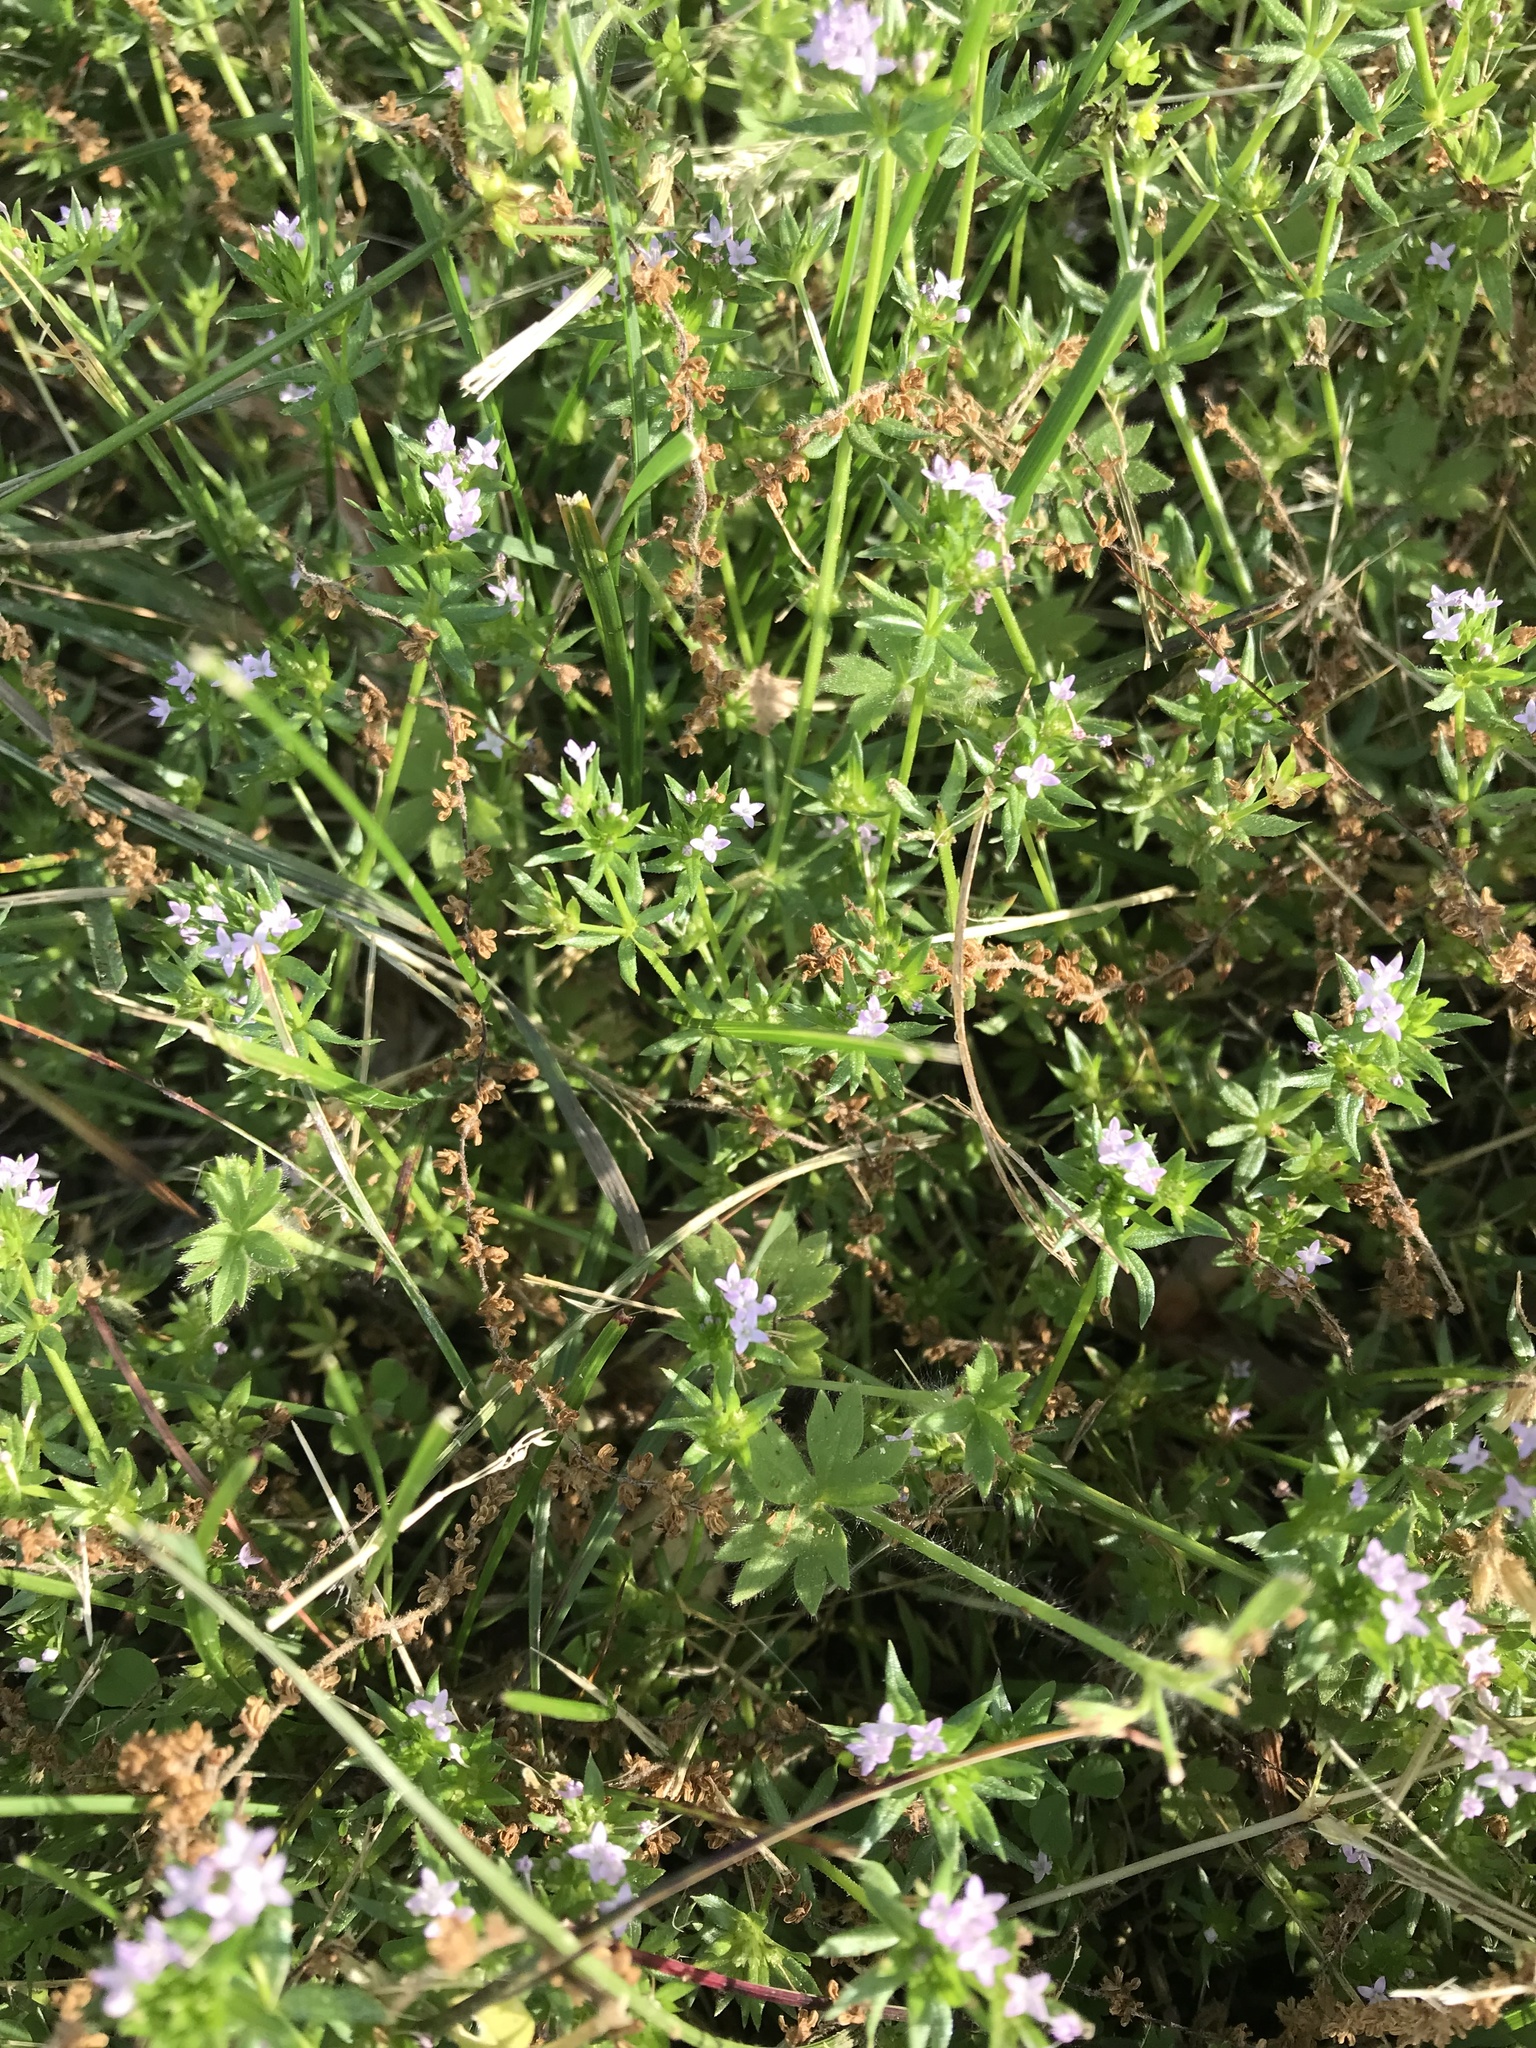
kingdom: Plantae
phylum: Tracheophyta
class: Magnoliopsida
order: Gentianales
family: Rubiaceae
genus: Sherardia
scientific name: Sherardia arvensis
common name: Field madder
